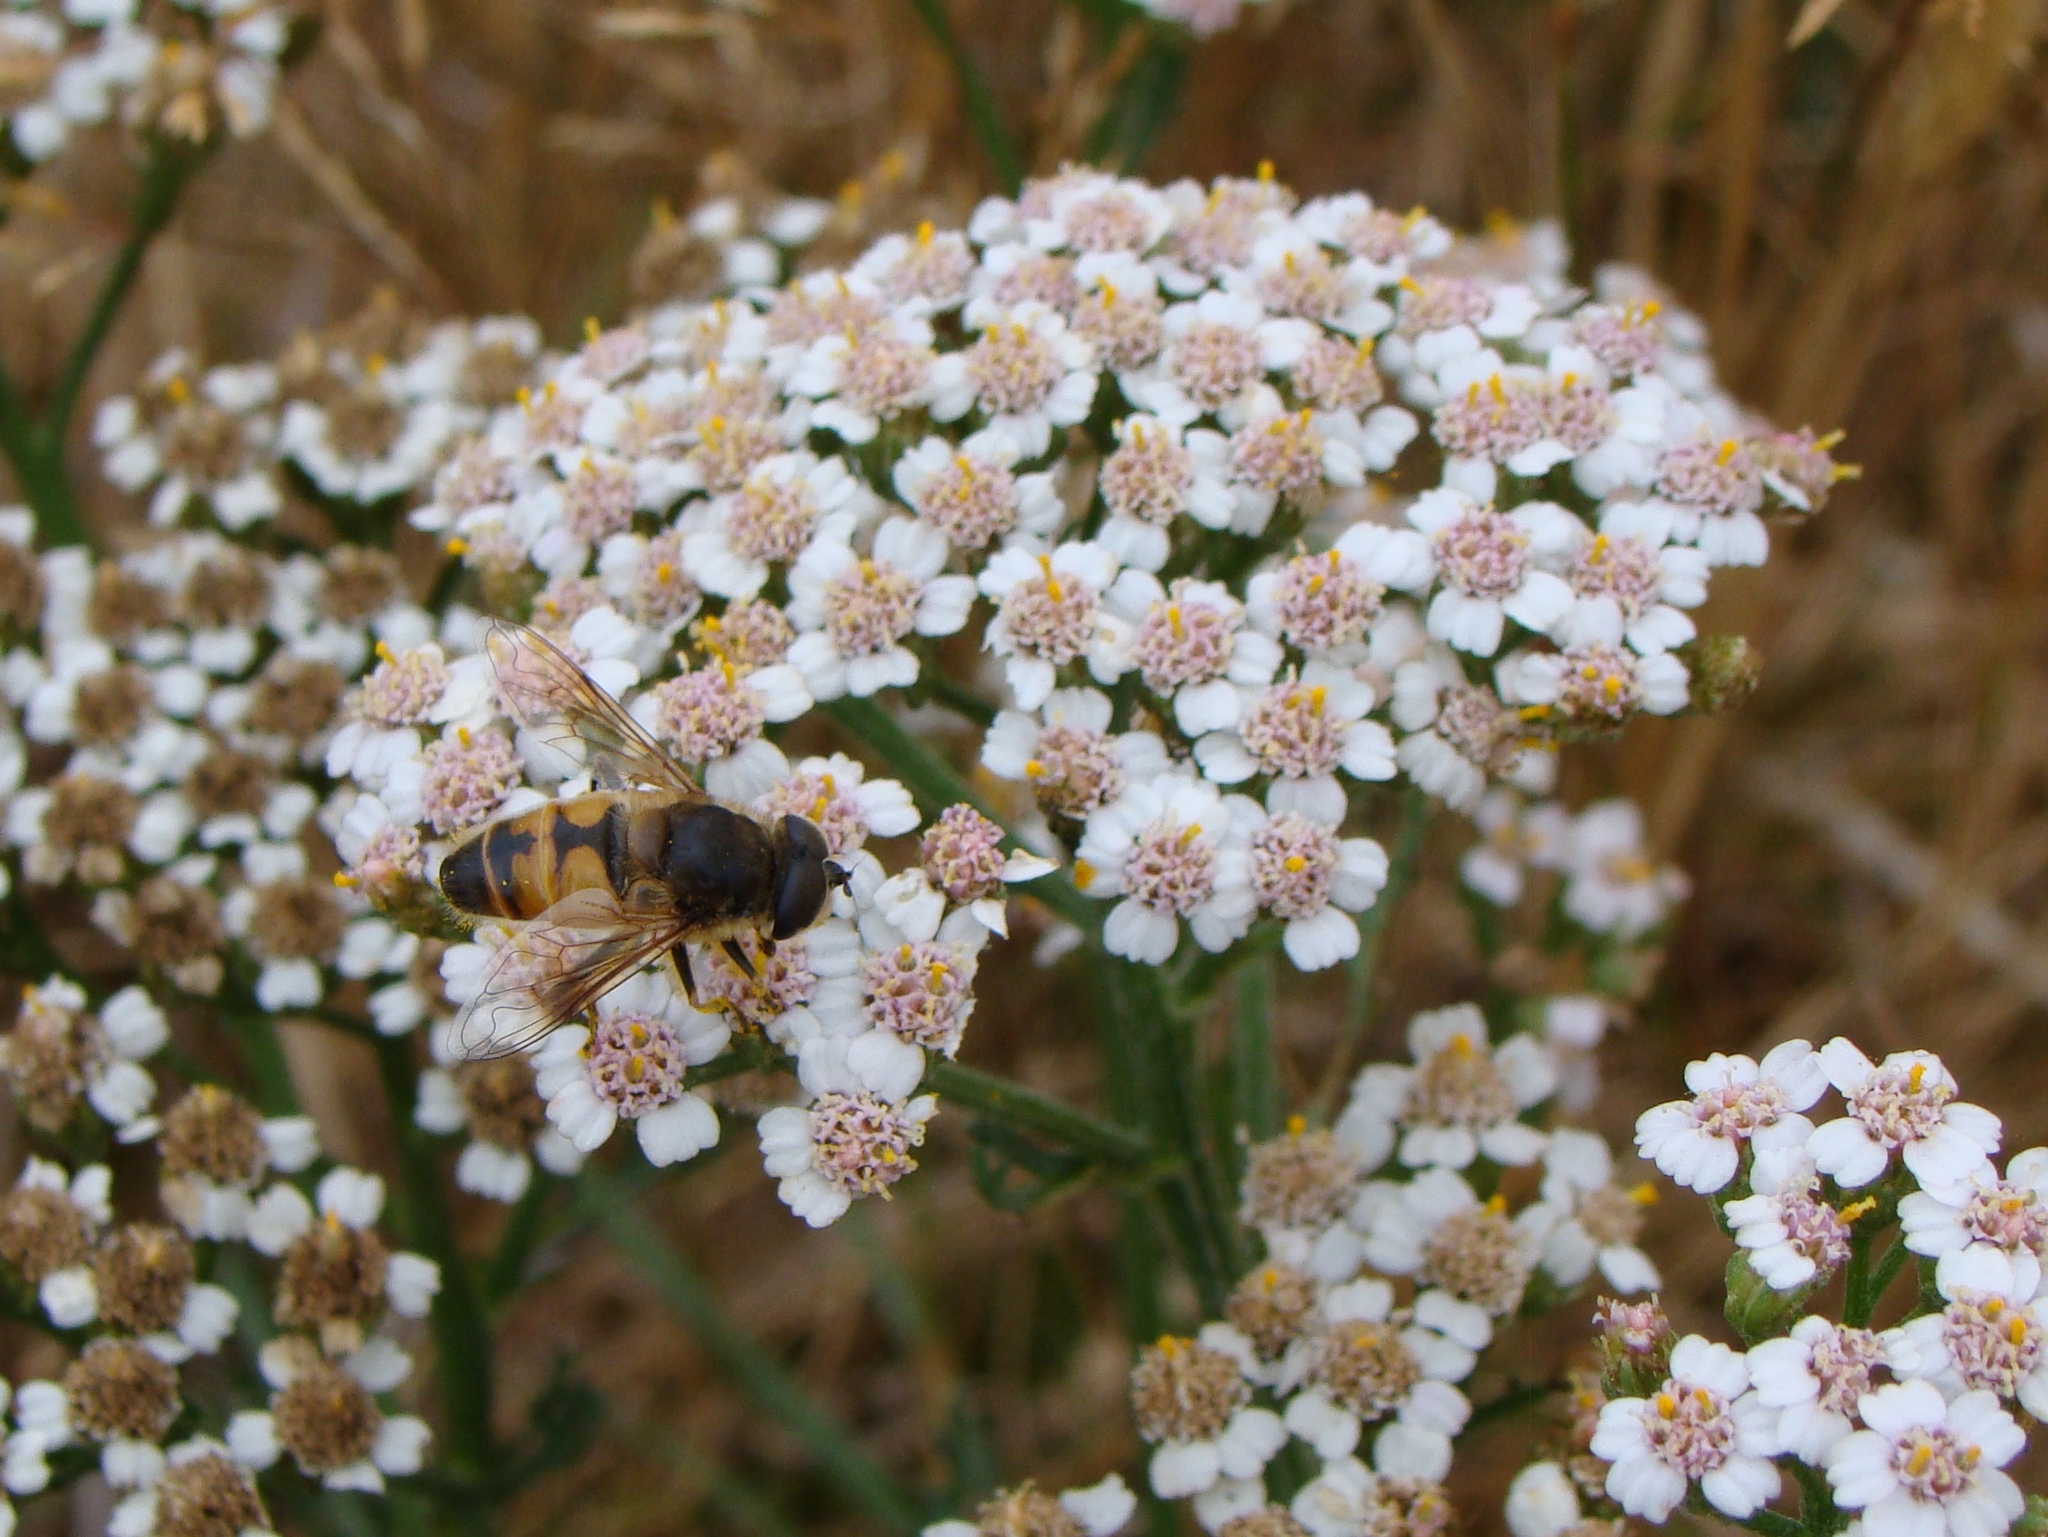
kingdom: Animalia
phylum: Arthropoda
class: Insecta
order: Diptera
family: Syrphidae
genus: Eristalis
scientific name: Eristalis tenax
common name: Drone fly
